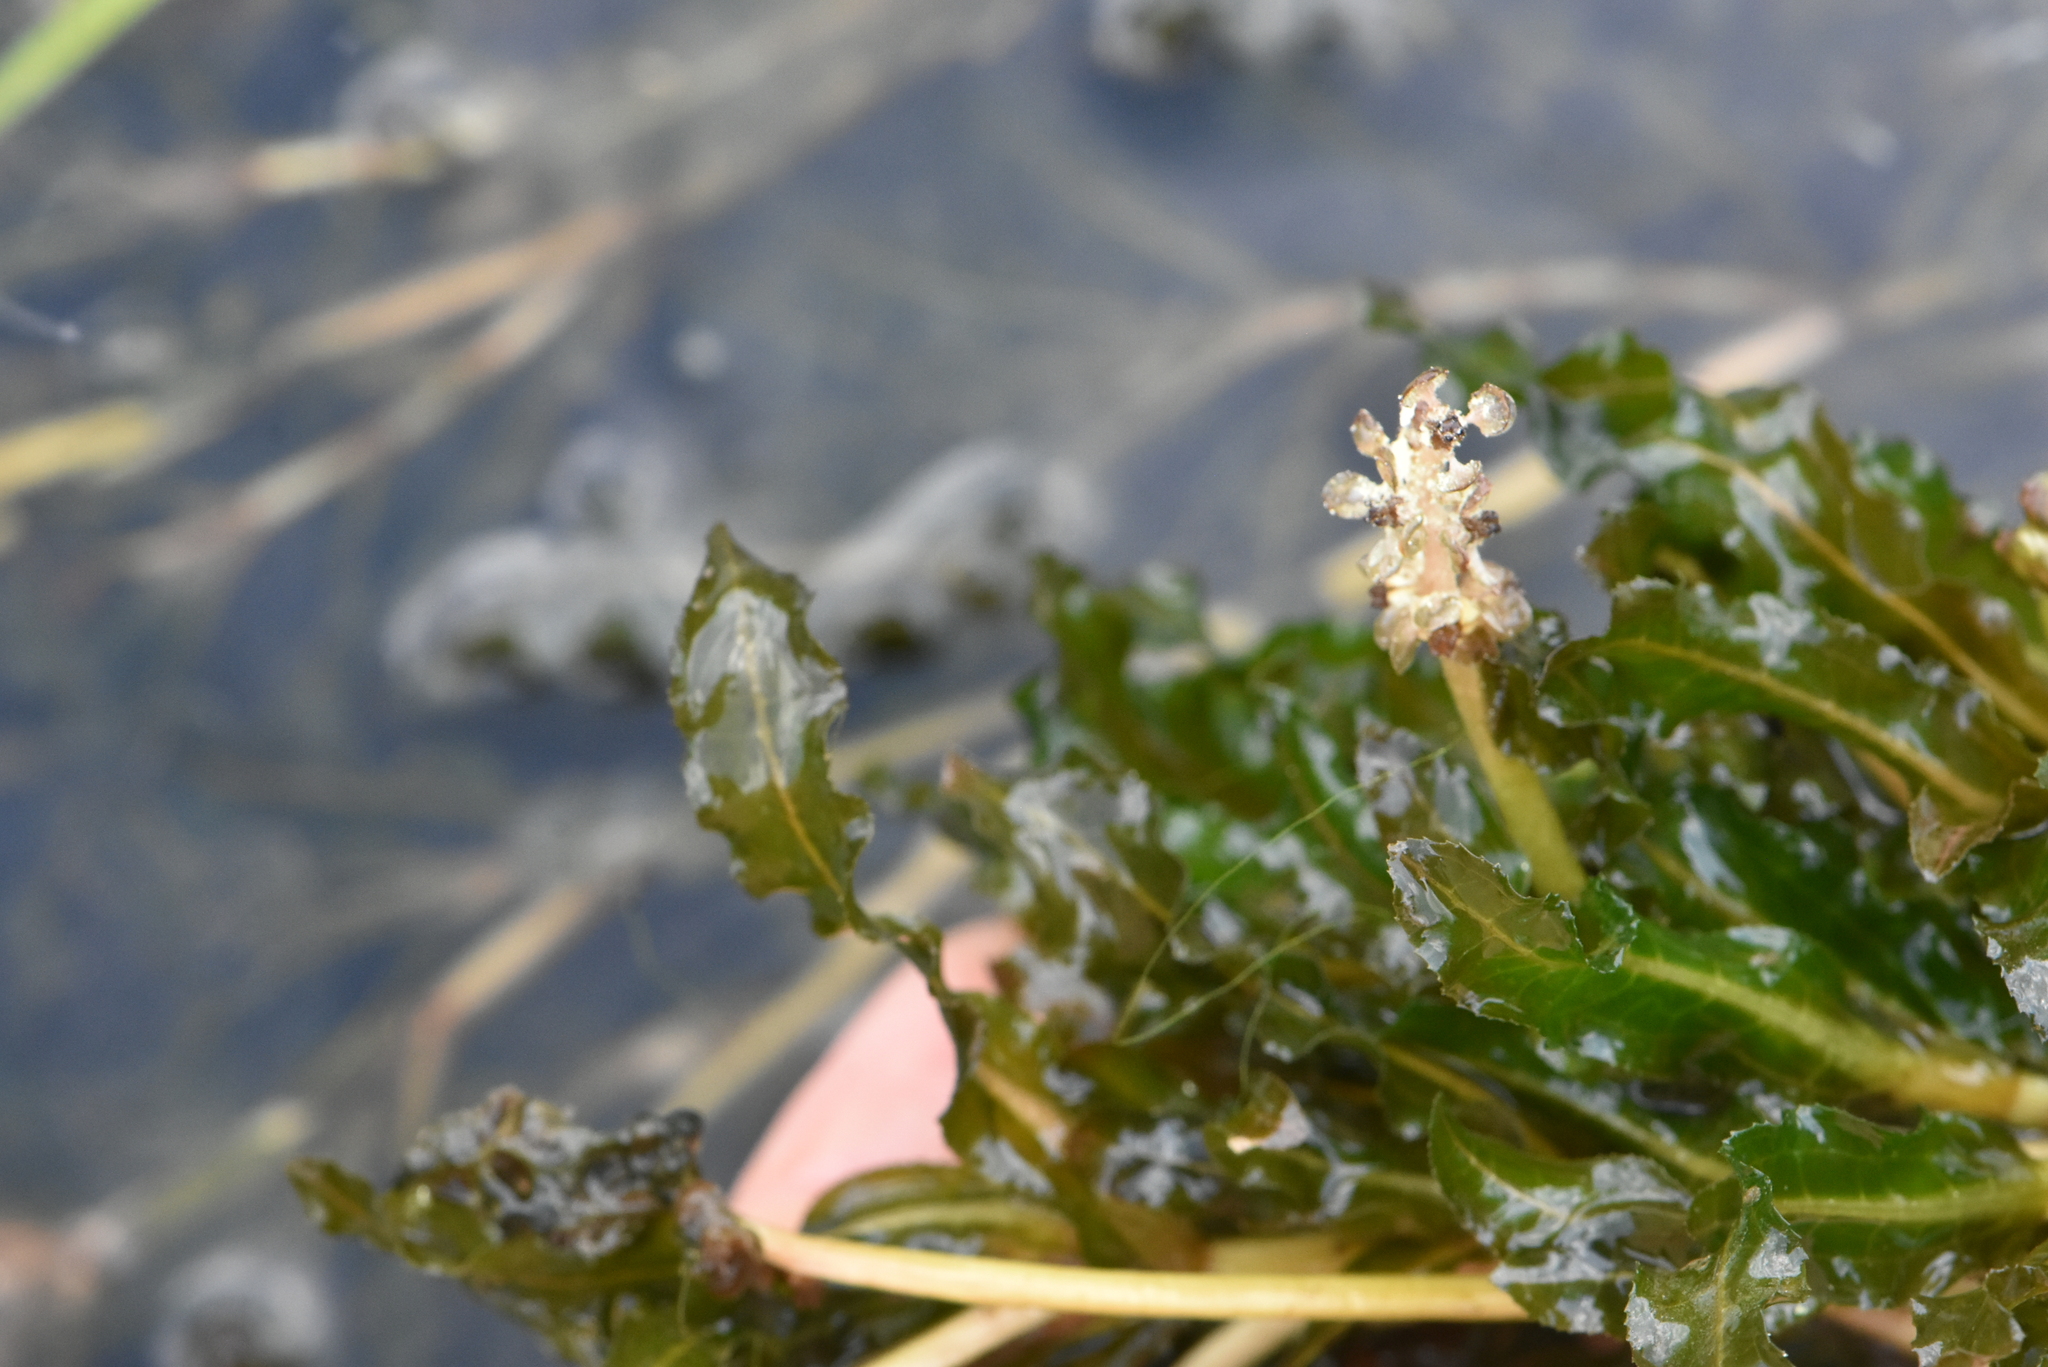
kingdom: Plantae
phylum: Tracheophyta
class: Liliopsida
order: Alismatales
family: Potamogetonaceae
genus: Potamogeton
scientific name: Potamogeton crispus
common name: Curled pondweed
